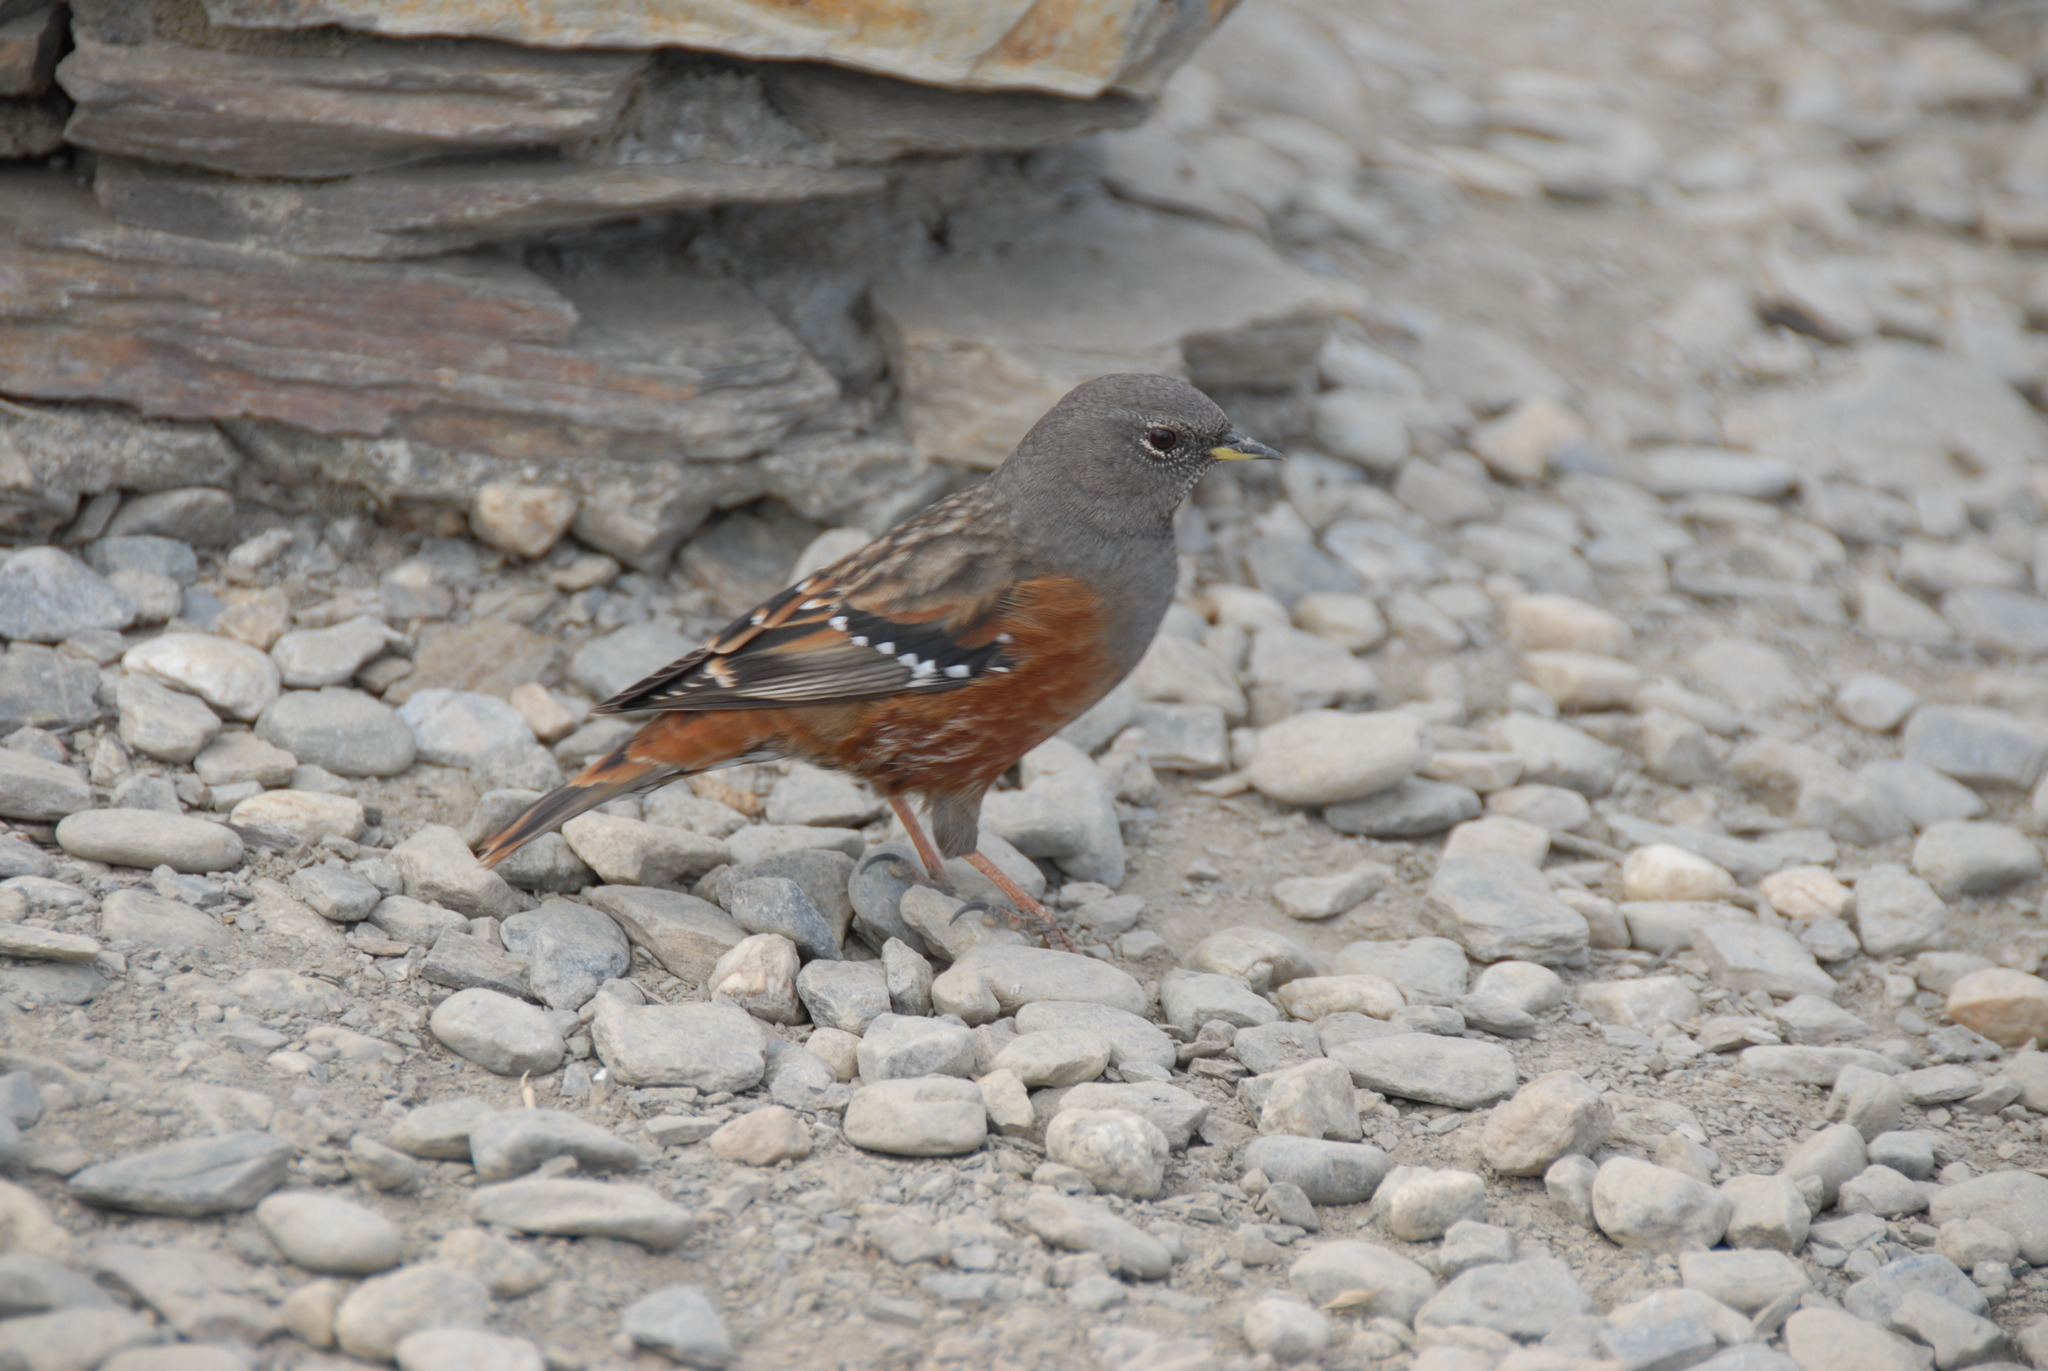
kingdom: Animalia
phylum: Chordata
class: Aves
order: Passeriformes
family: Prunellidae
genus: Prunella
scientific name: Prunella collaris
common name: Alpine accentor
